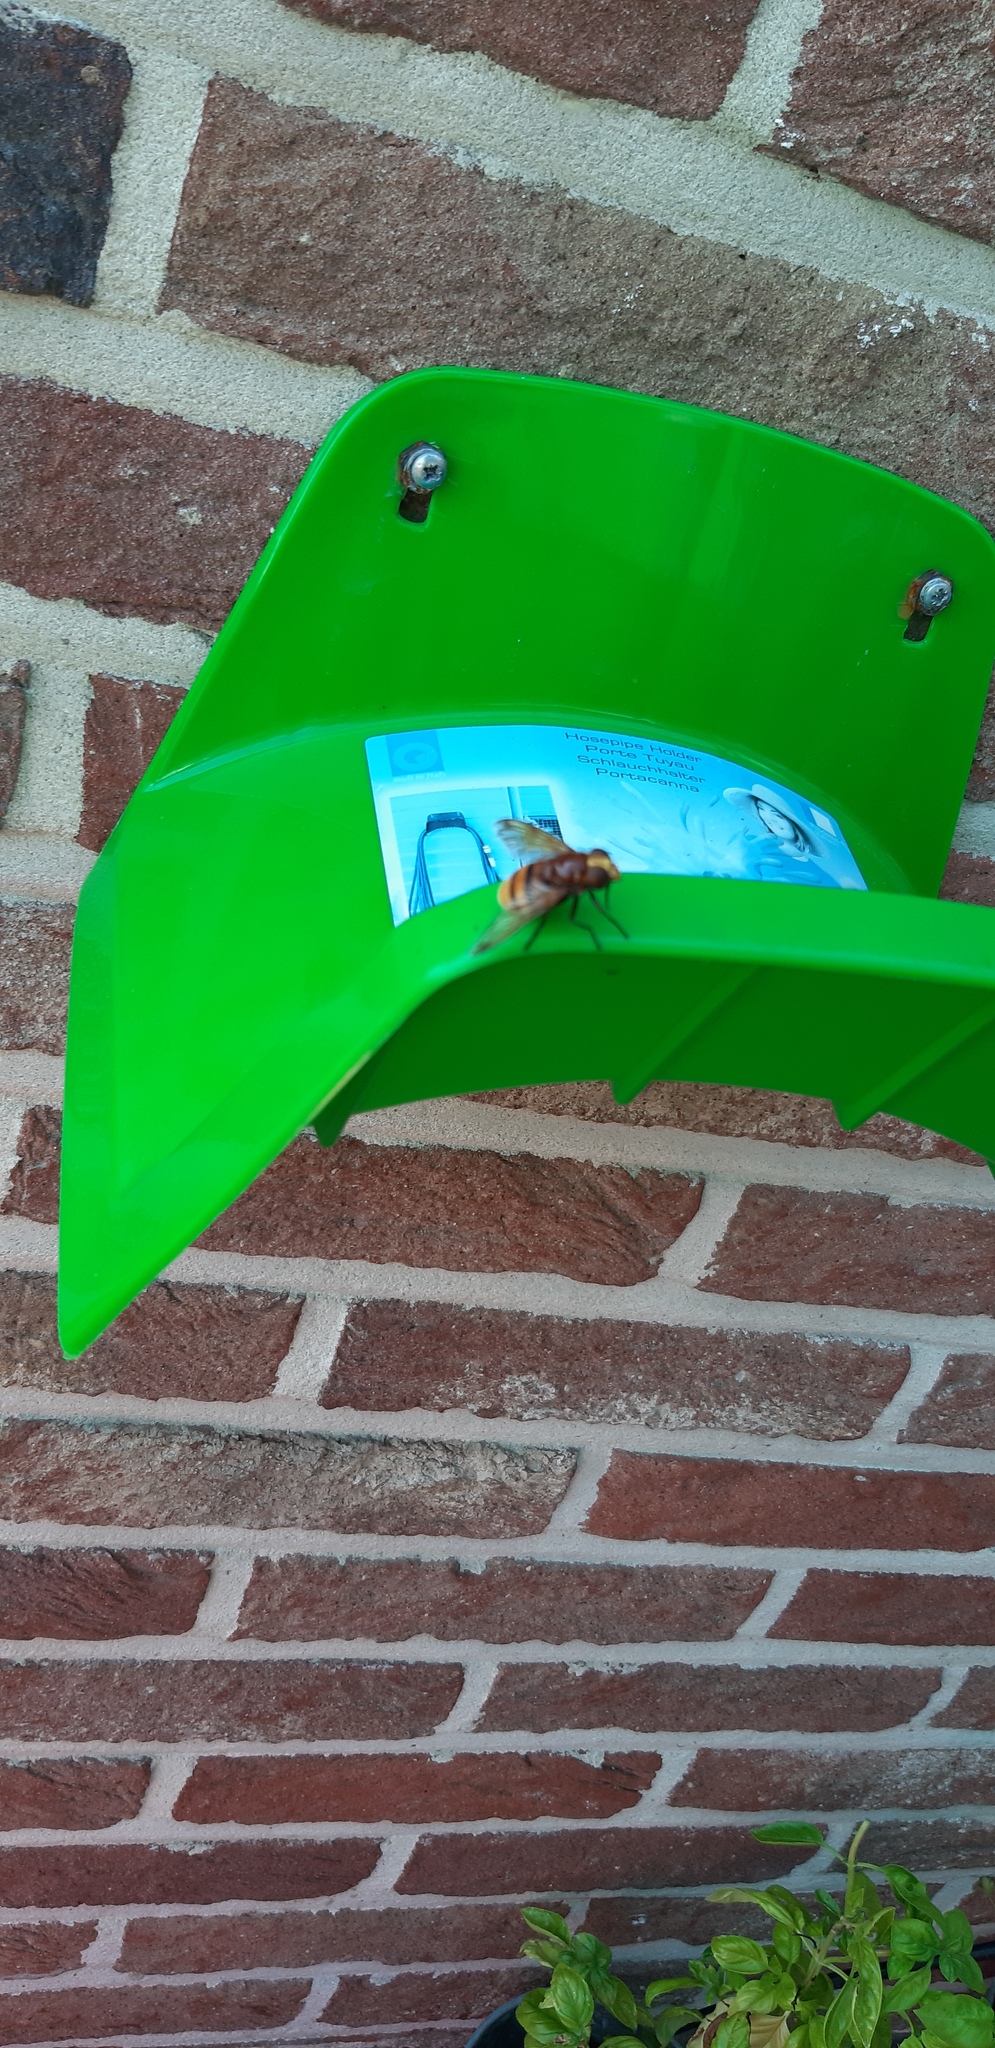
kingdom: Animalia
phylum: Arthropoda
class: Insecta
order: Diptera
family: Syrphidae
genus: Volucella
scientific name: Volucella zonaria
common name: Hornet hoverfly
